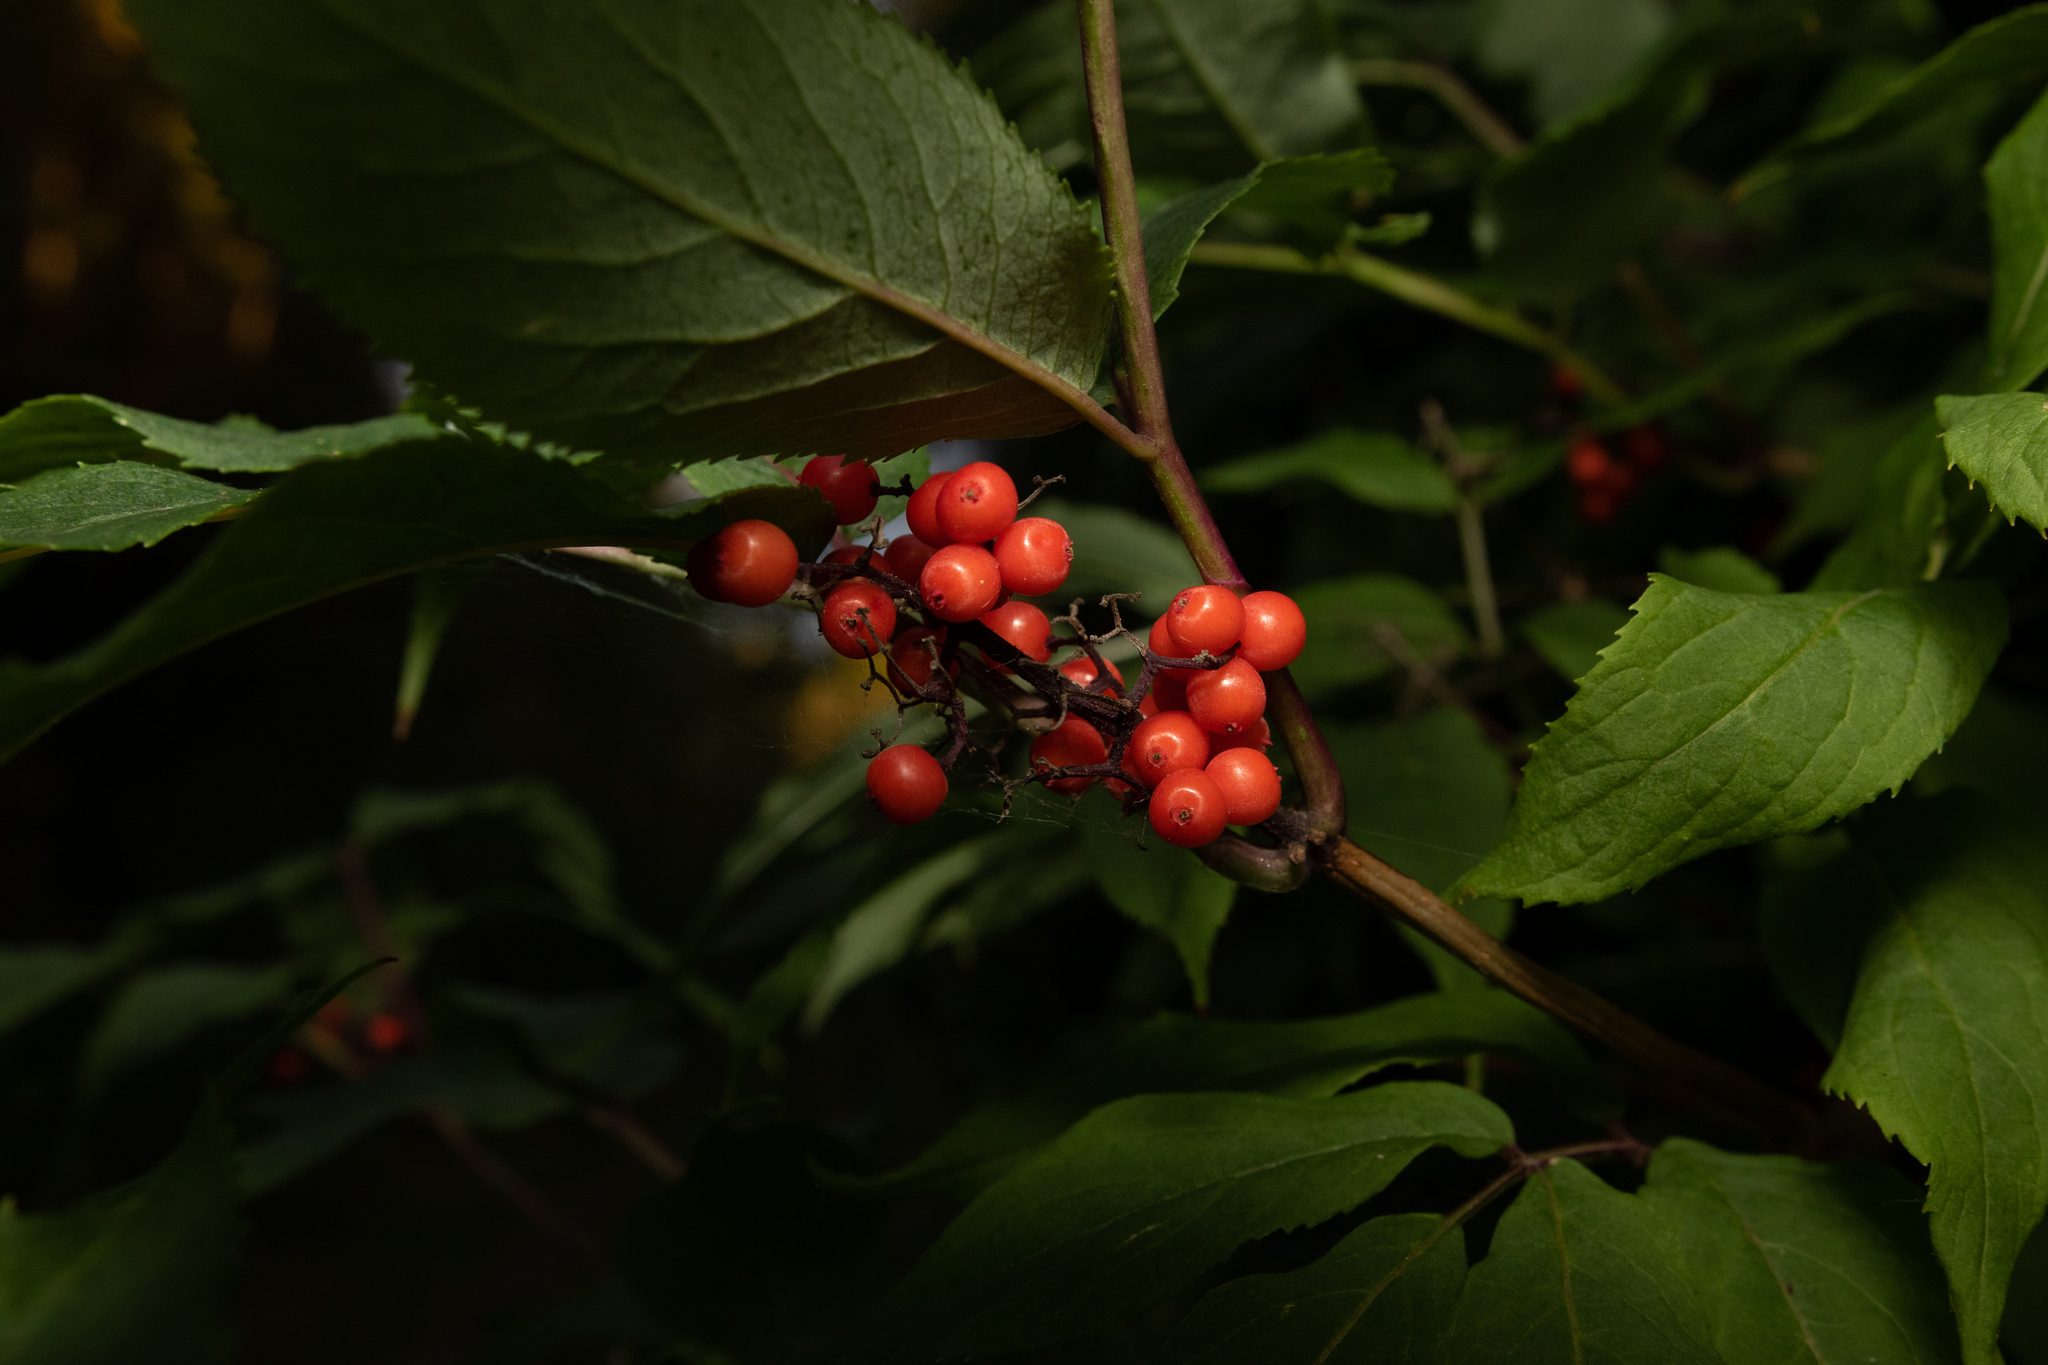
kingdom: Plantae
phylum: Tracheophyta
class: Magnoliopsida
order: Dipsacales
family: Viburnaceae
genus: Sambucus
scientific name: Sambucus racemosa
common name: Red-berried elder
